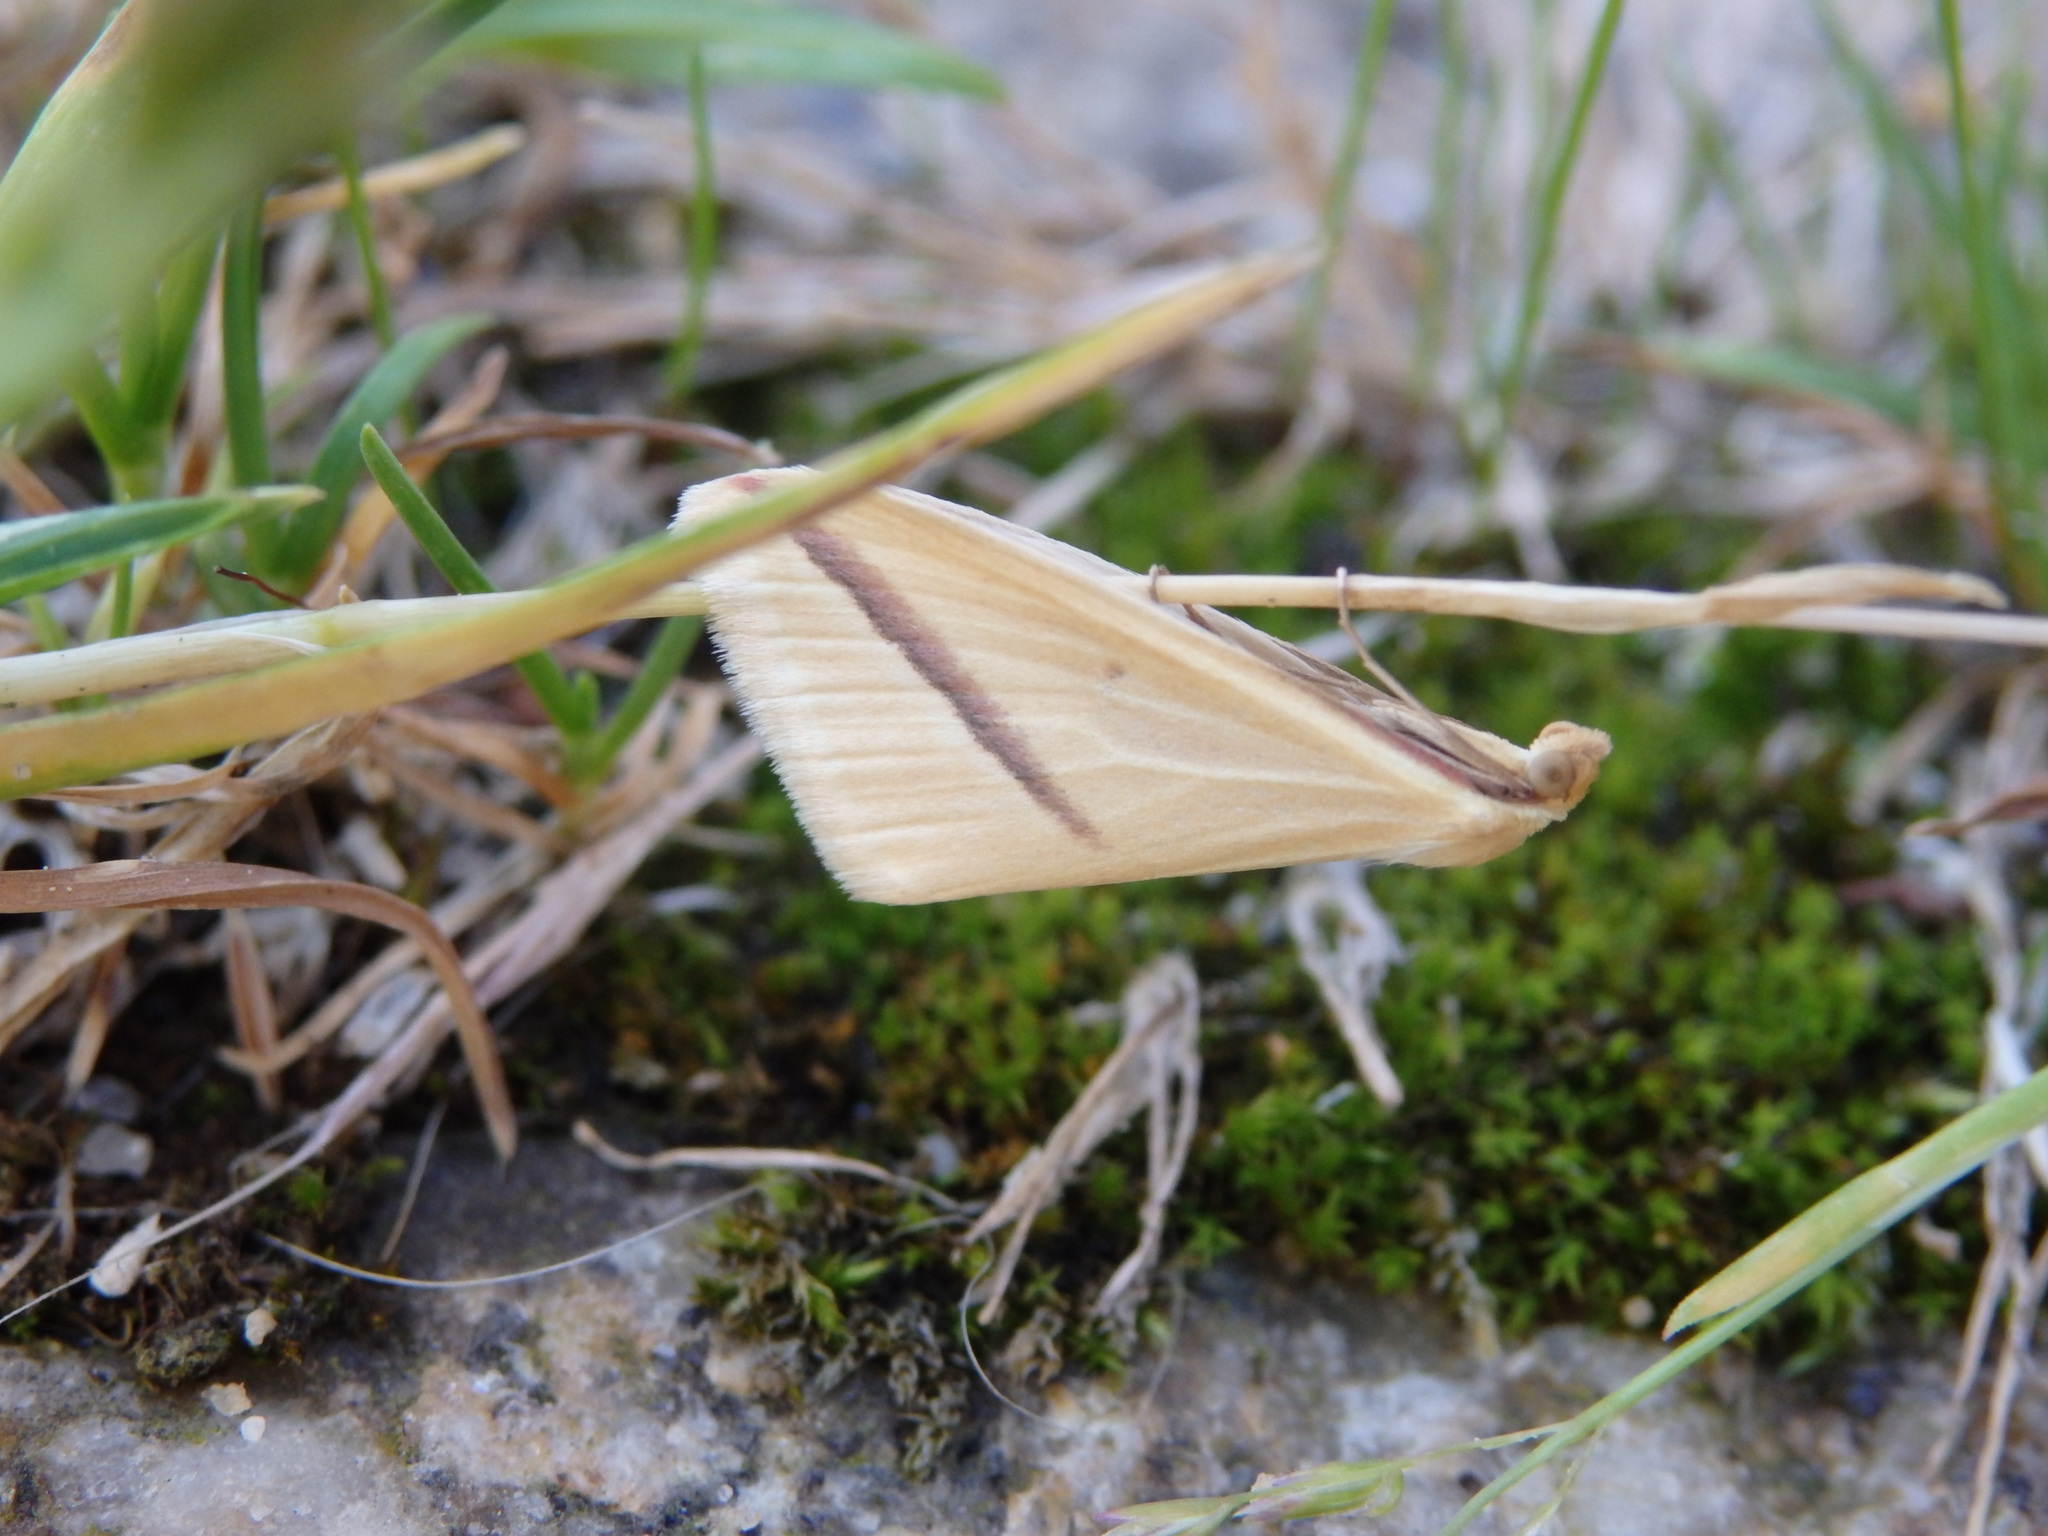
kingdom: Animalia
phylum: Arthropoda
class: Insecta
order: Lepidoptera
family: Geometridae
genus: Rhodometra
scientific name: Rhodometra sacraria
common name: Vestal
